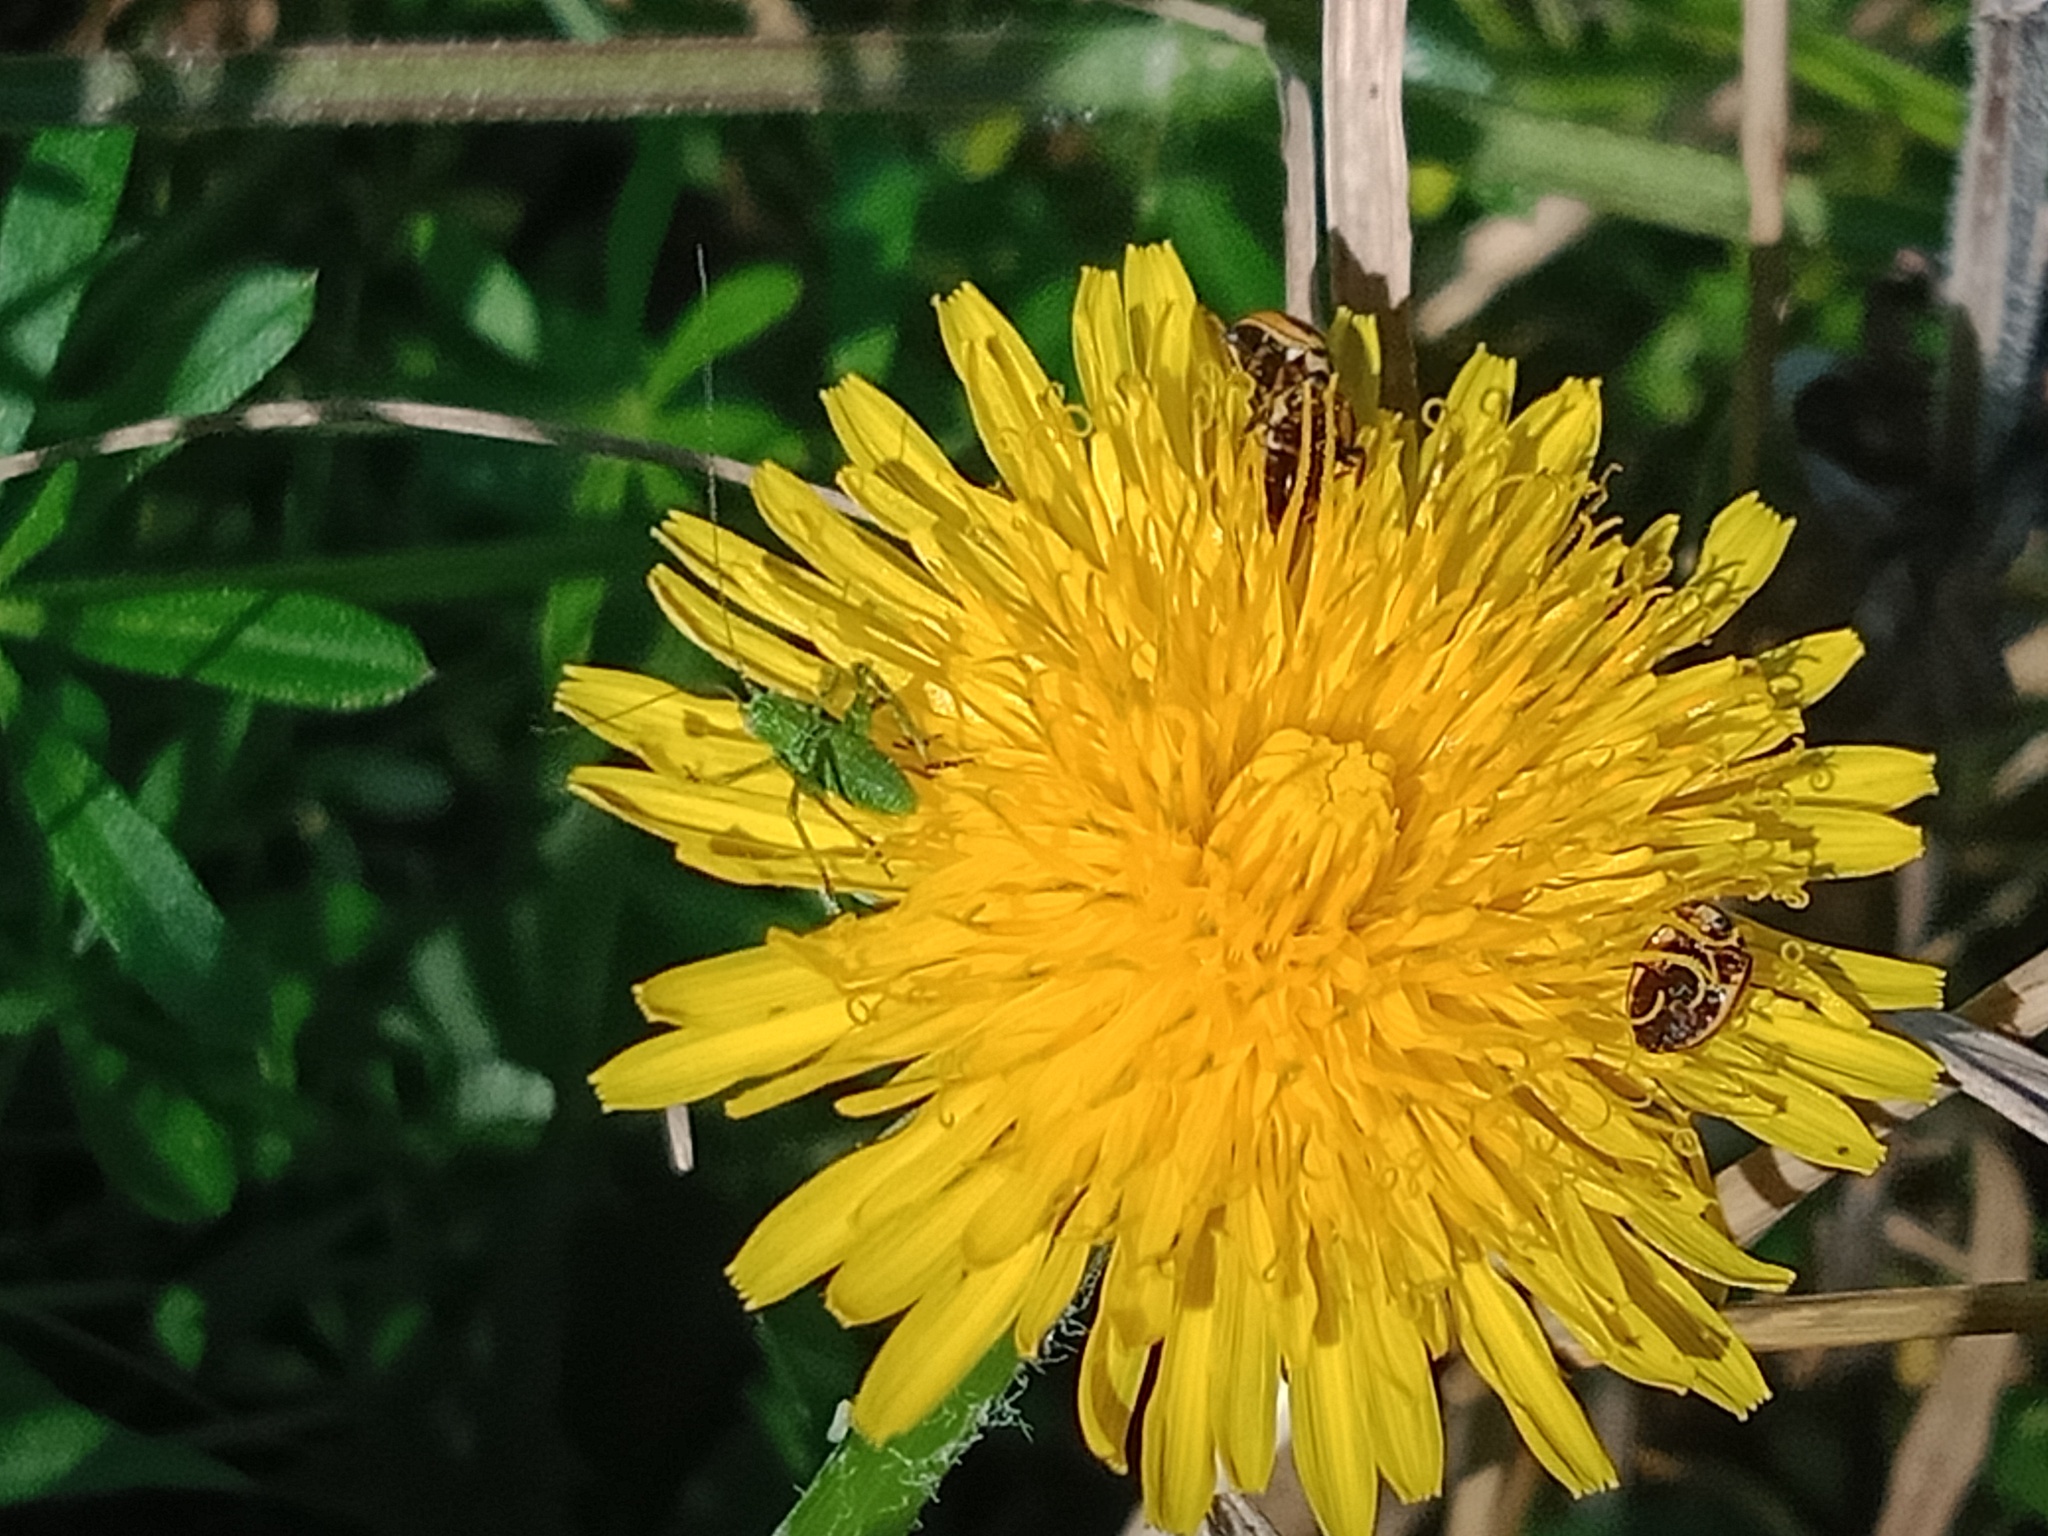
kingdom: Animalia
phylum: Arthropoda
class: Insecta
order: Coleoptera
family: Coccinellidae
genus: Micraspis
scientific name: Micraspis frenata
